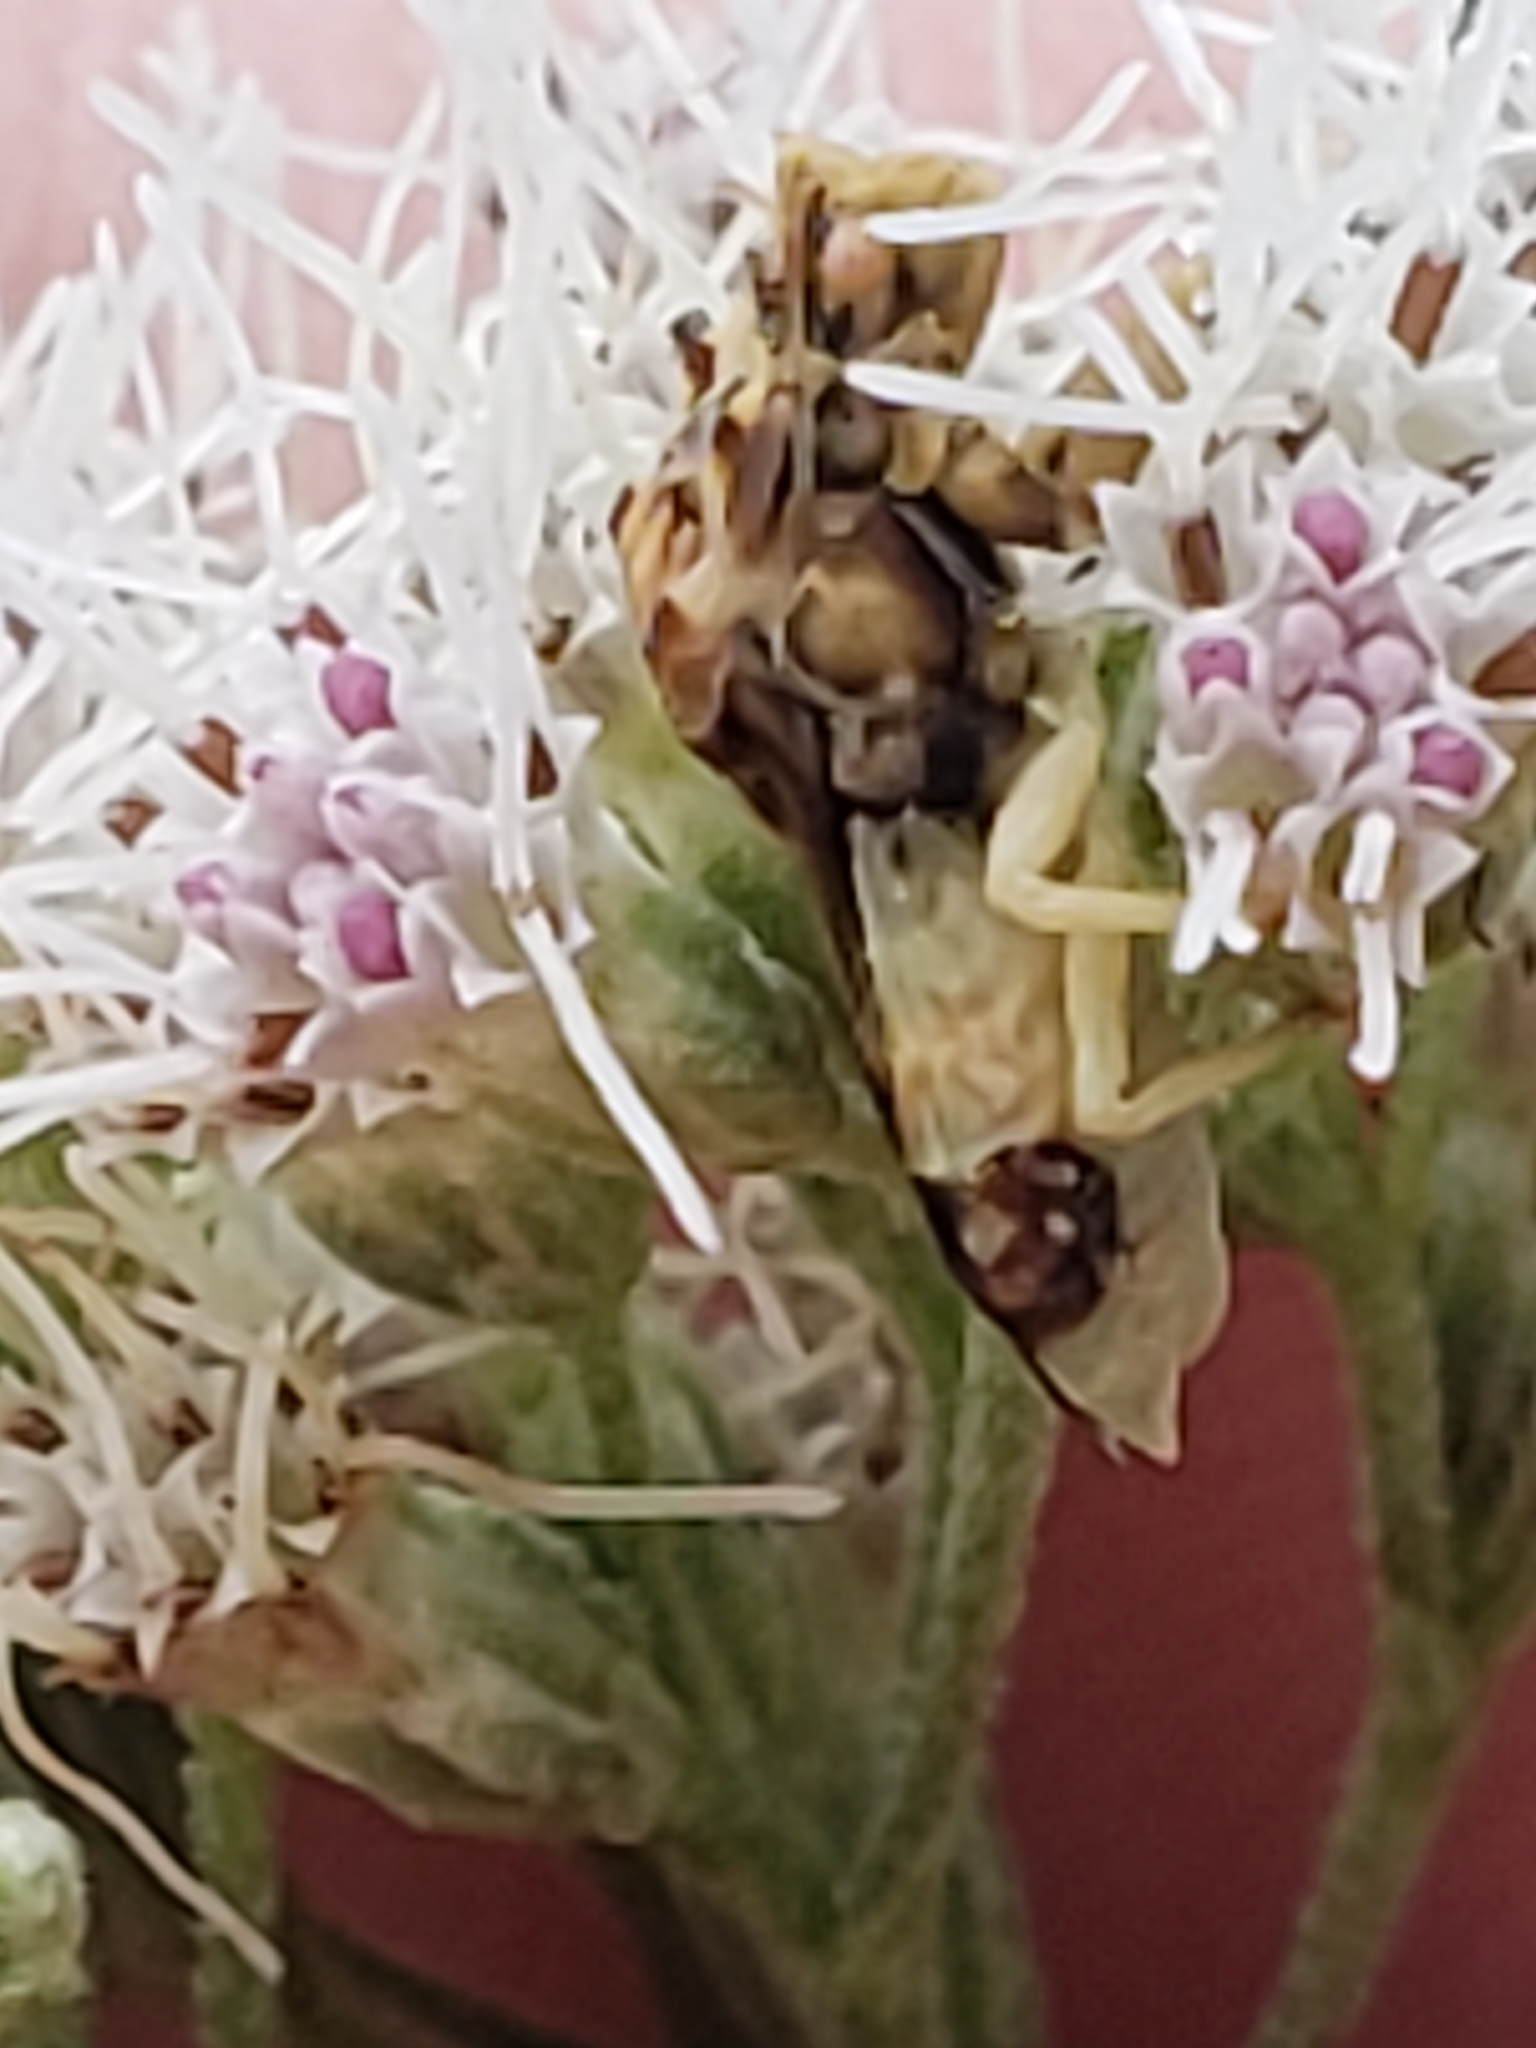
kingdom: Animalia
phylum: Arthropoda
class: Insecta
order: Hemiptera
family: Reduviidae
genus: Phymata
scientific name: Phymata fasciata
